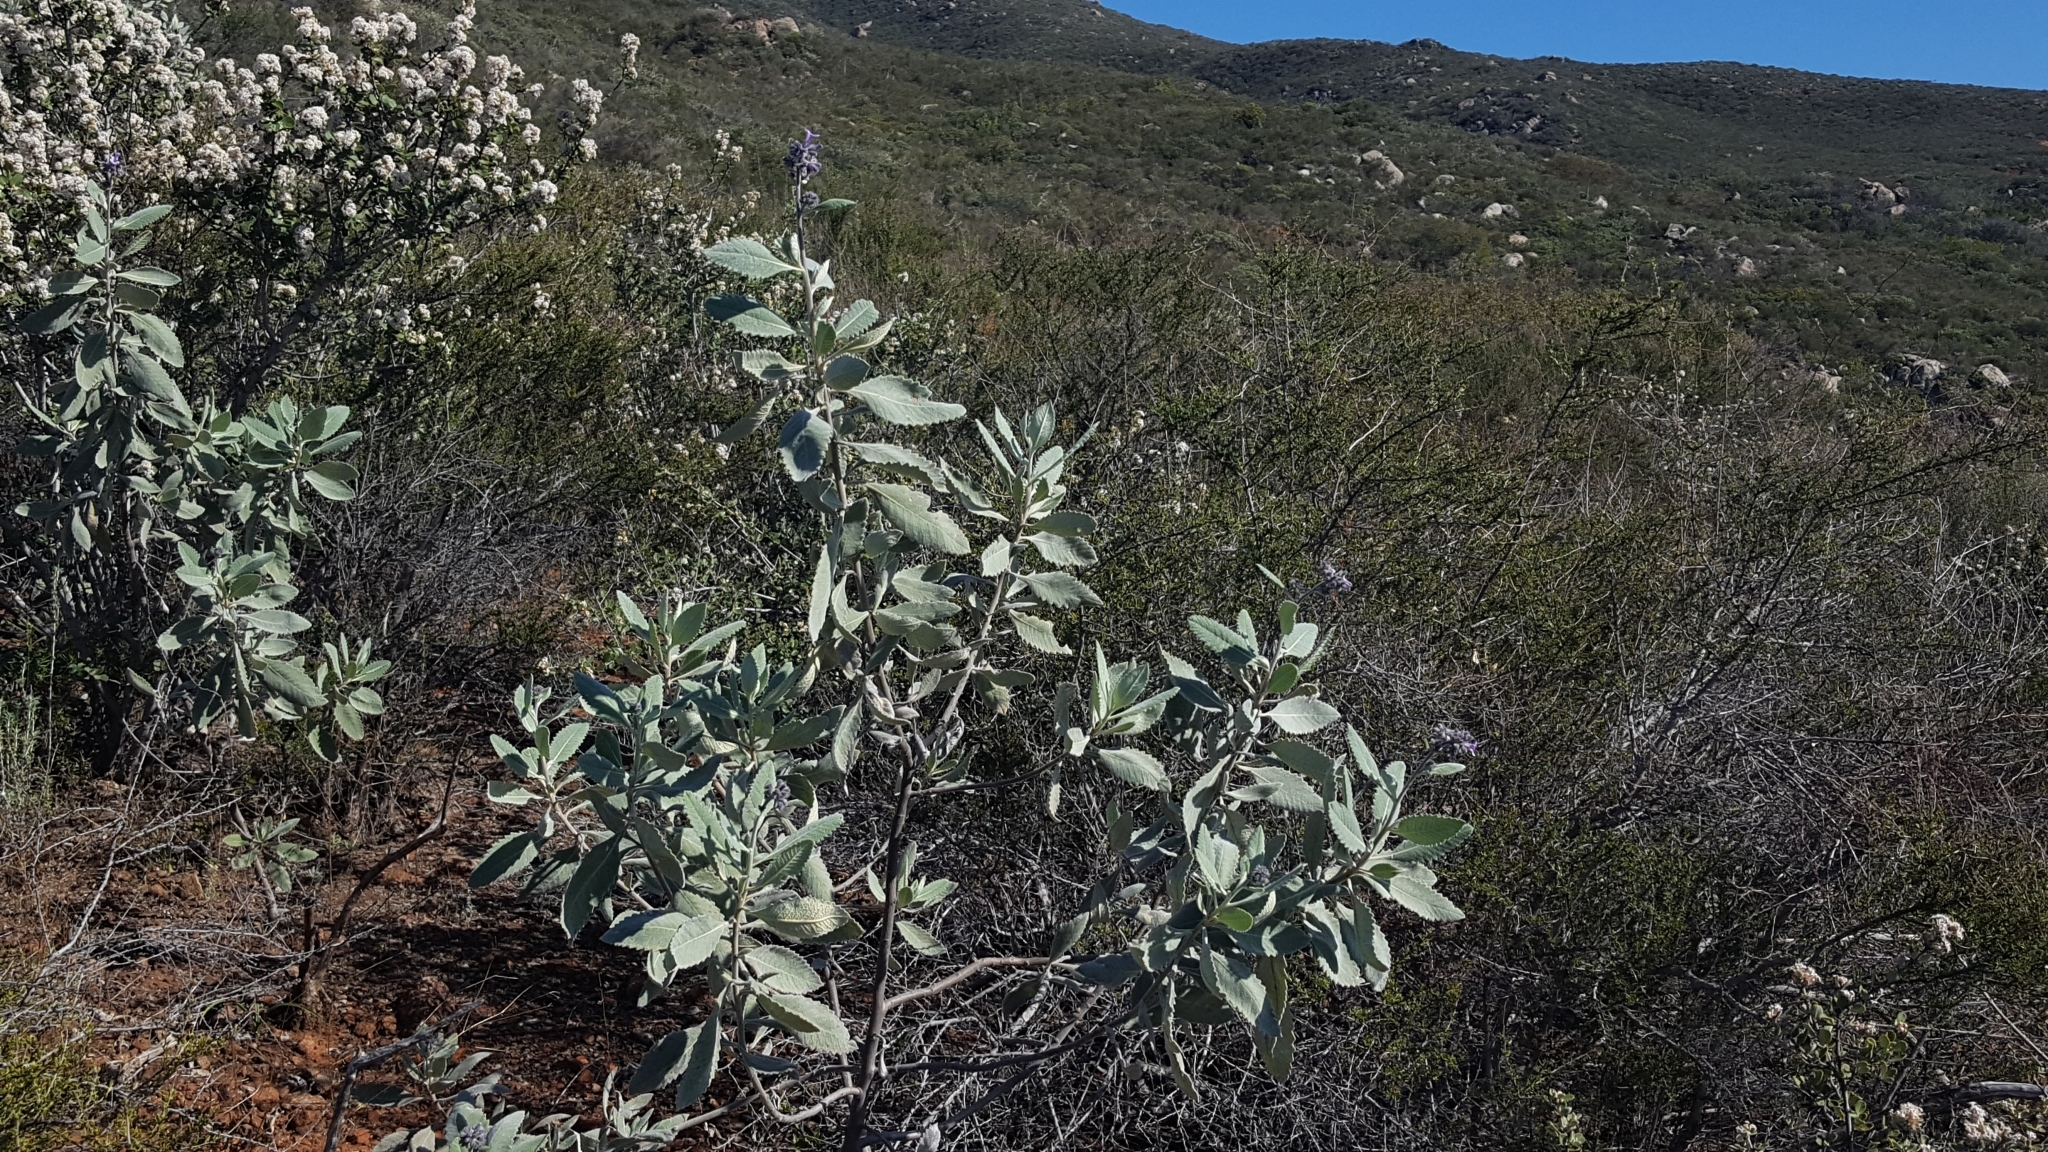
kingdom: Plantae
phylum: Tracheophyta
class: Magnoliopsida
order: Boraginales
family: Namaceae
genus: Eriodictyon
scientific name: Eriodictyon crassifolium
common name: Thick-leaf yerba-santa
